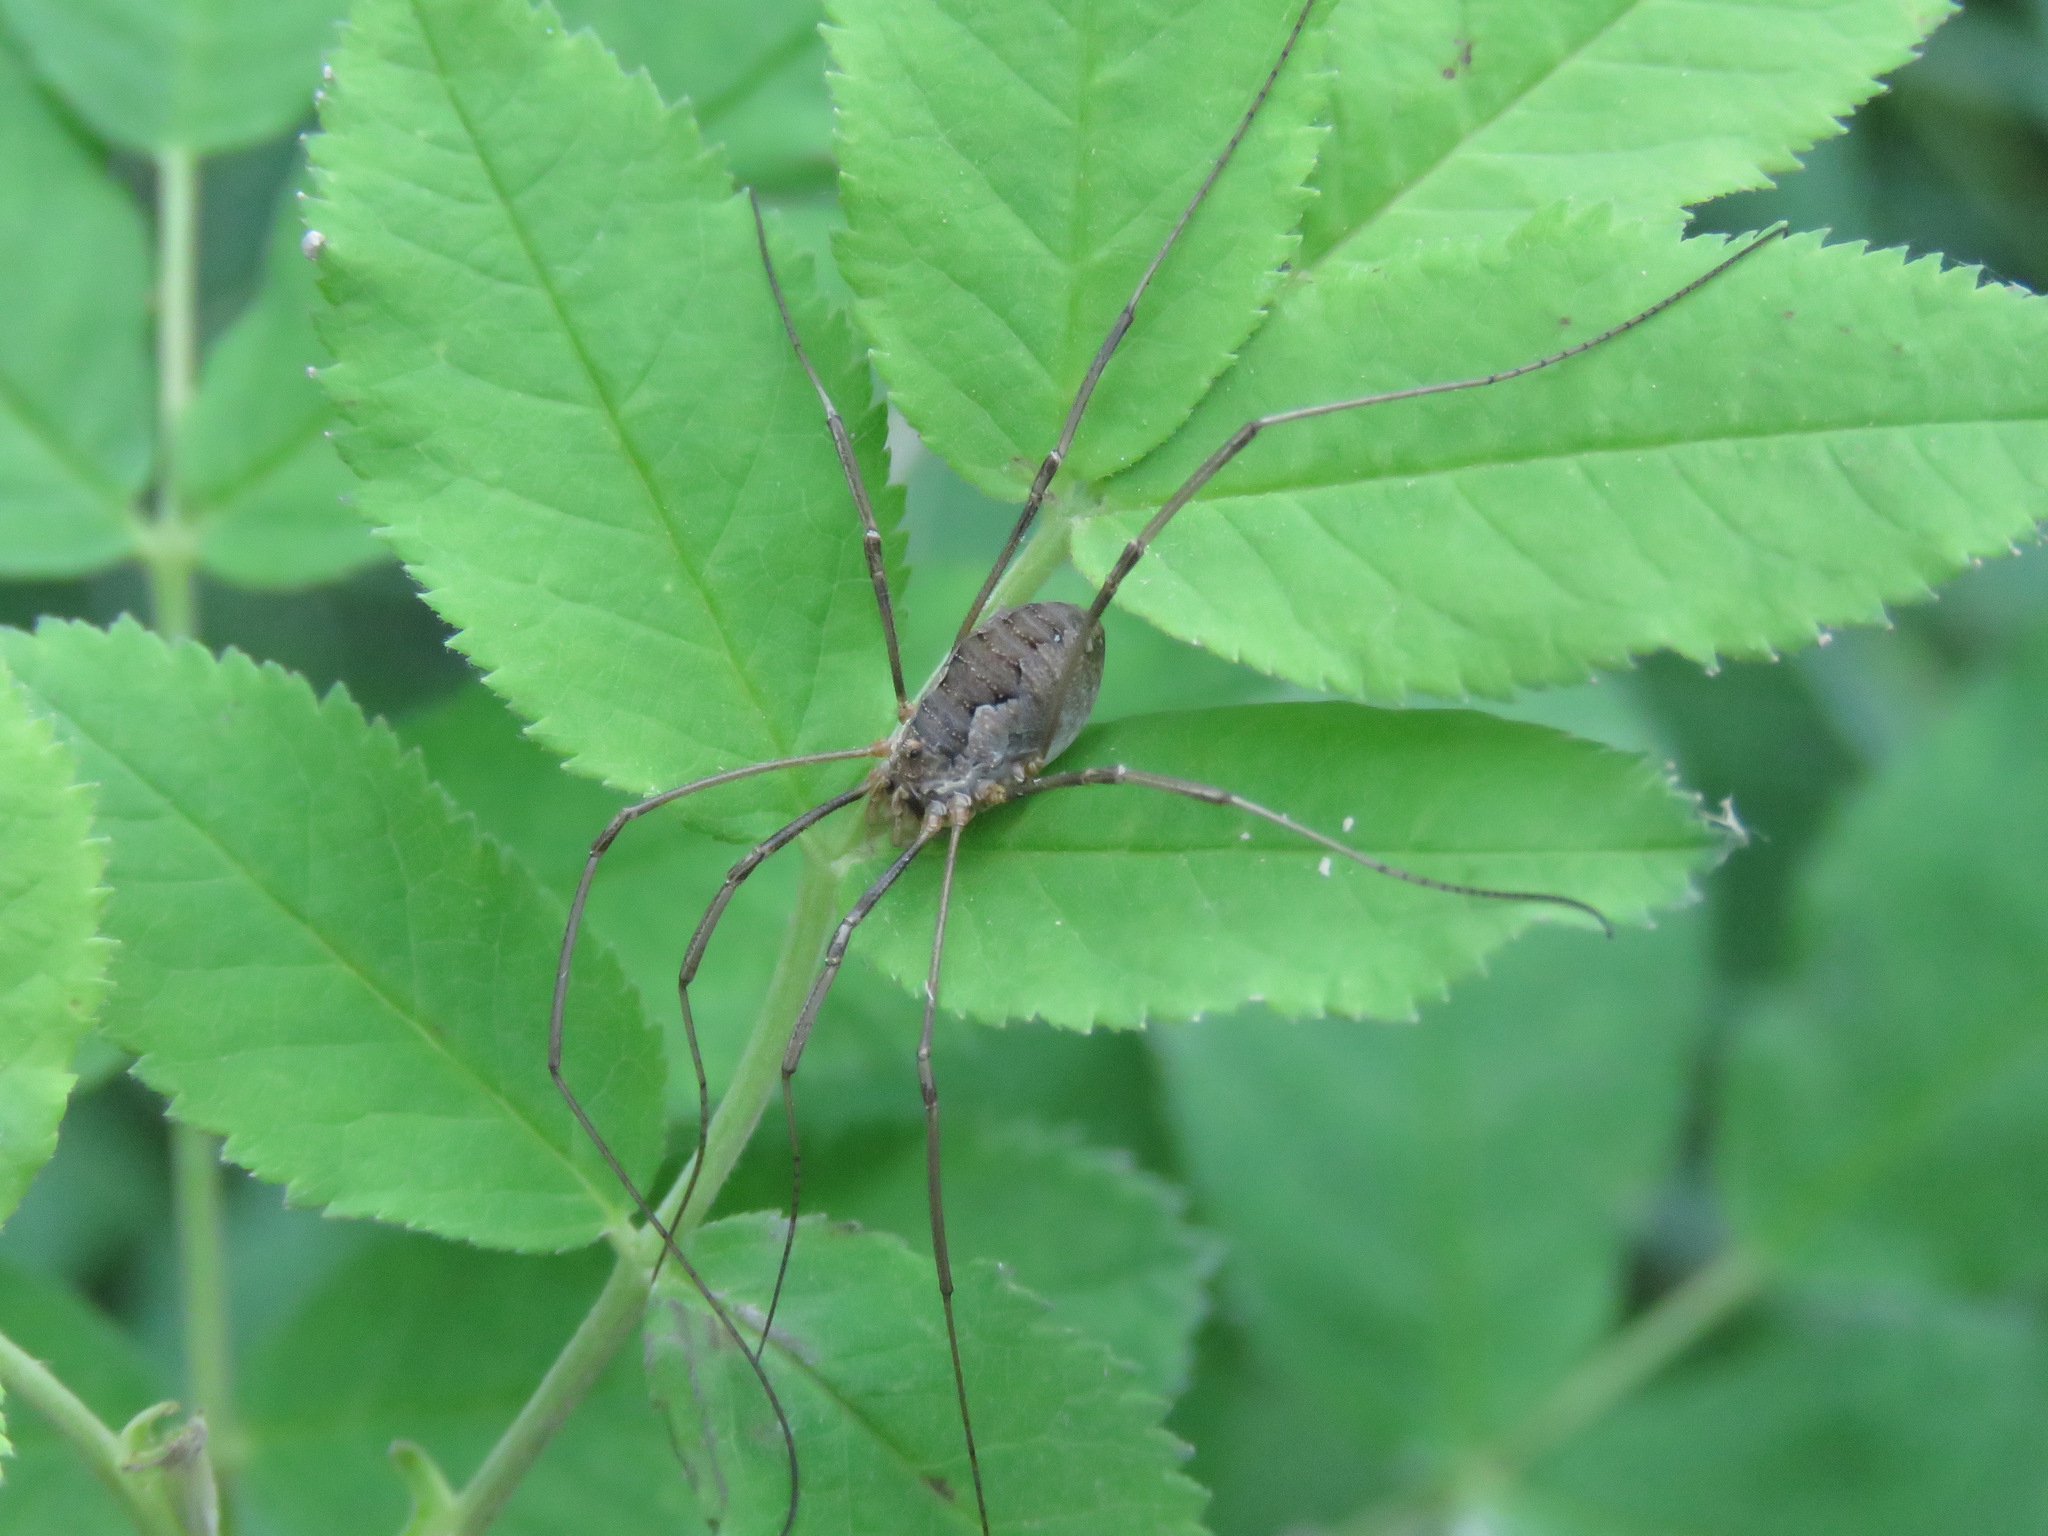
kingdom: Animalia
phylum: Arthropoda
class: Arachnida
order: Opiliones
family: Phalangiidae
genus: Phalangium
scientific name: Phalangium opilio
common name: Daddy longleg
